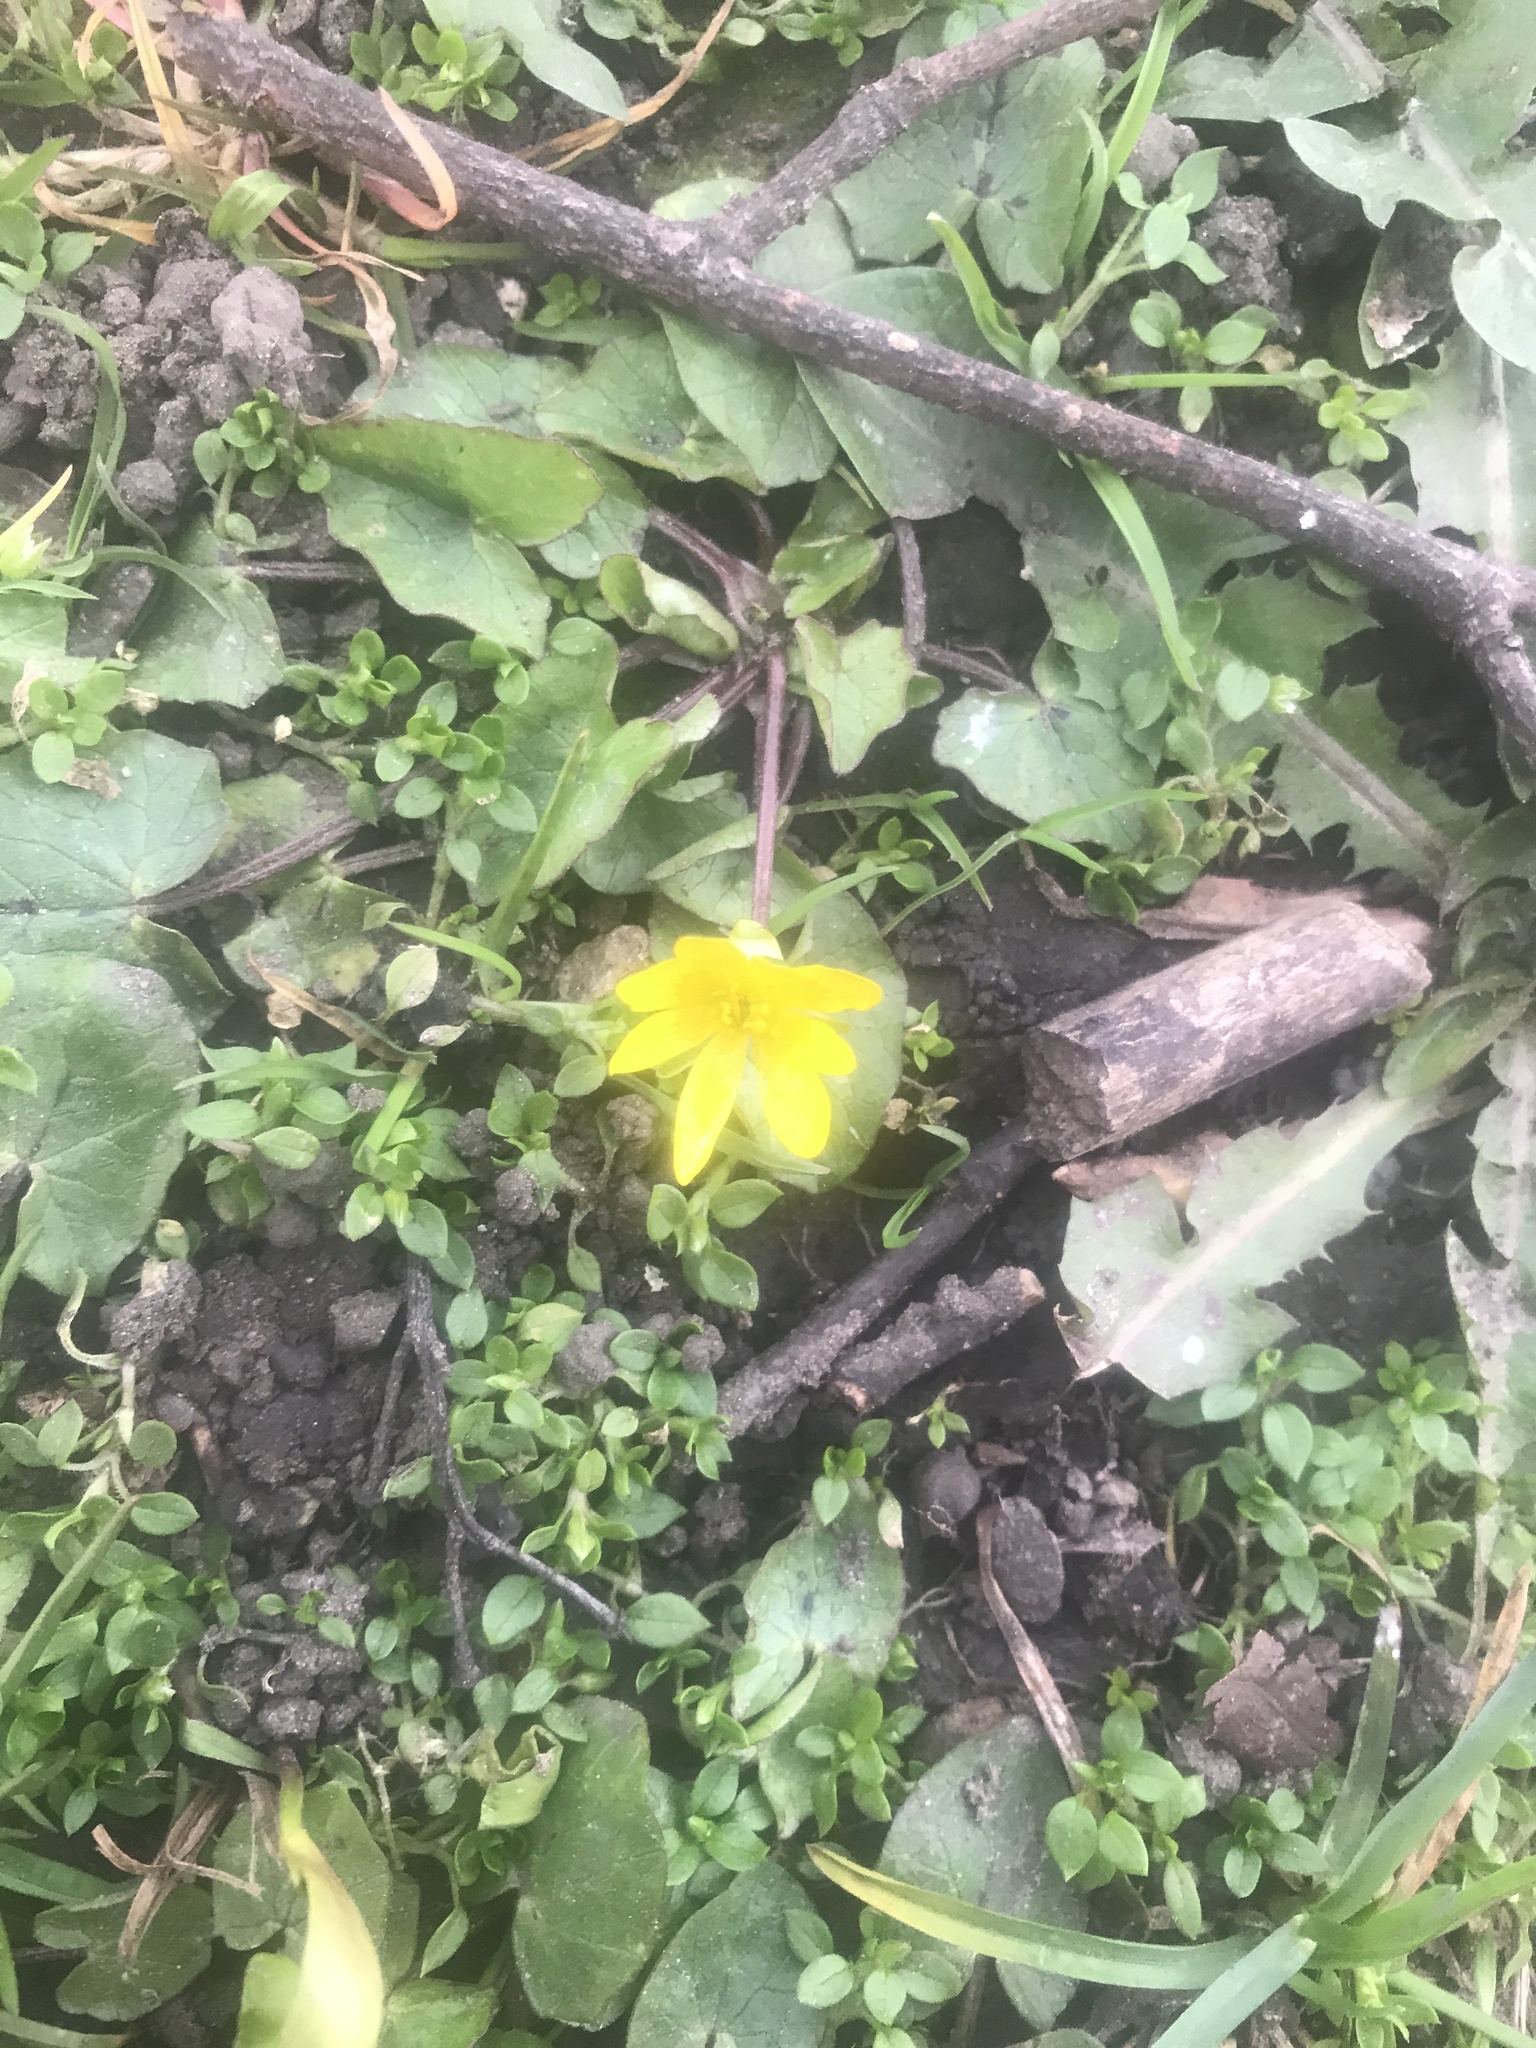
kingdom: Plantae
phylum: Tracheophyta
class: Magnoliopsida
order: Ranunculales
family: Ranunculaceae
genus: Ficaria
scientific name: Ficaria verna
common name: Lesser celandine
